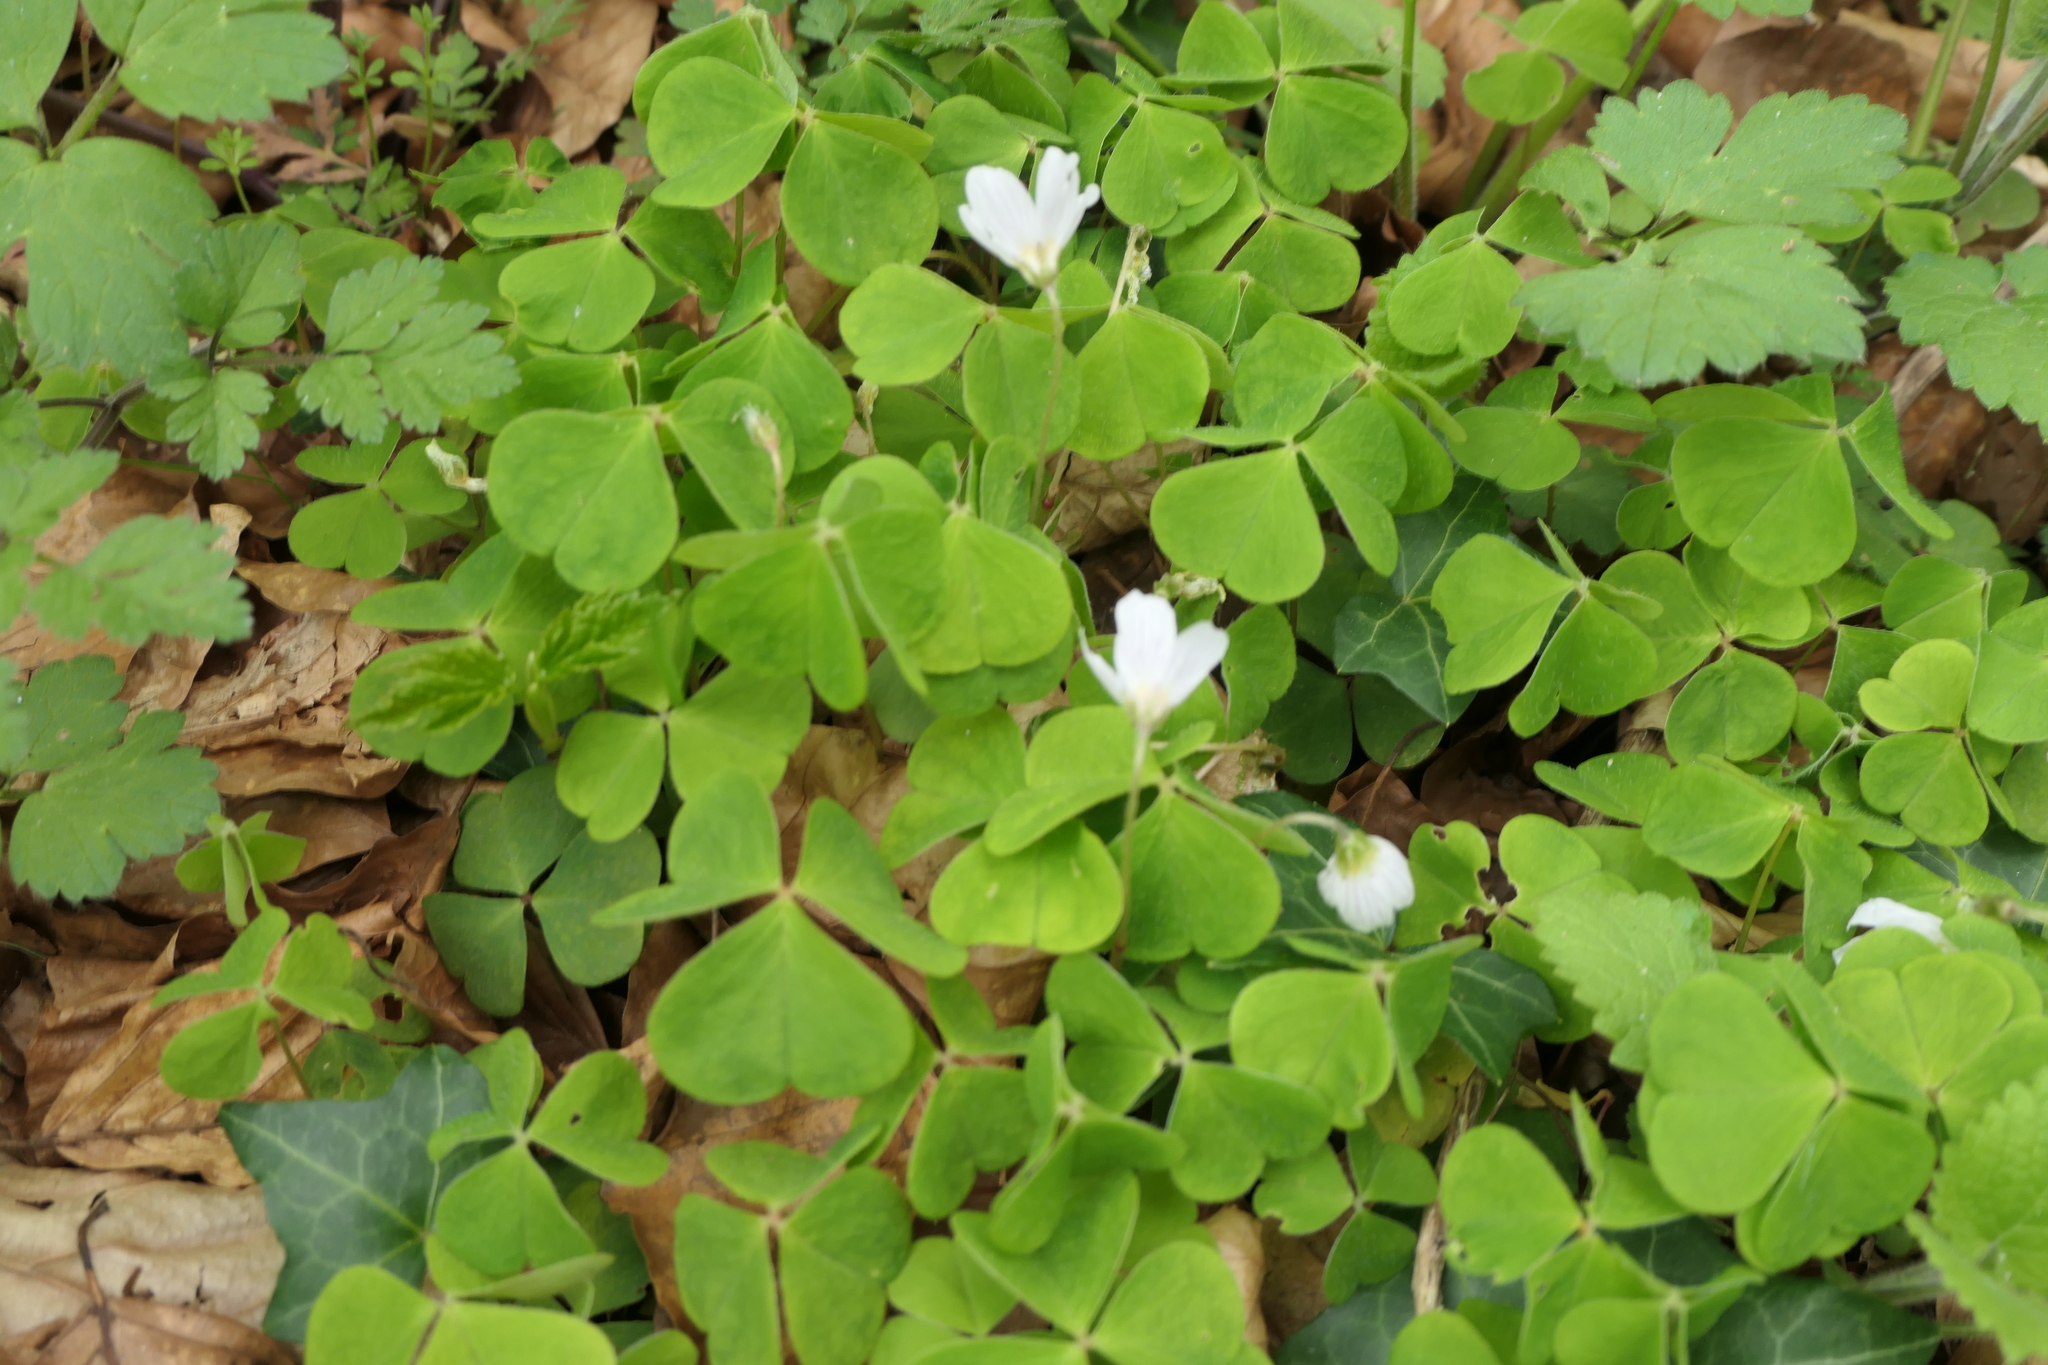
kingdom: Plantae
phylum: Tracheophyta
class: Magnoliopsida
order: Oxalidales
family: Oxalidaceae
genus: Oxalis
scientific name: Oxalis acetosella
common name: Wood-sorrel
